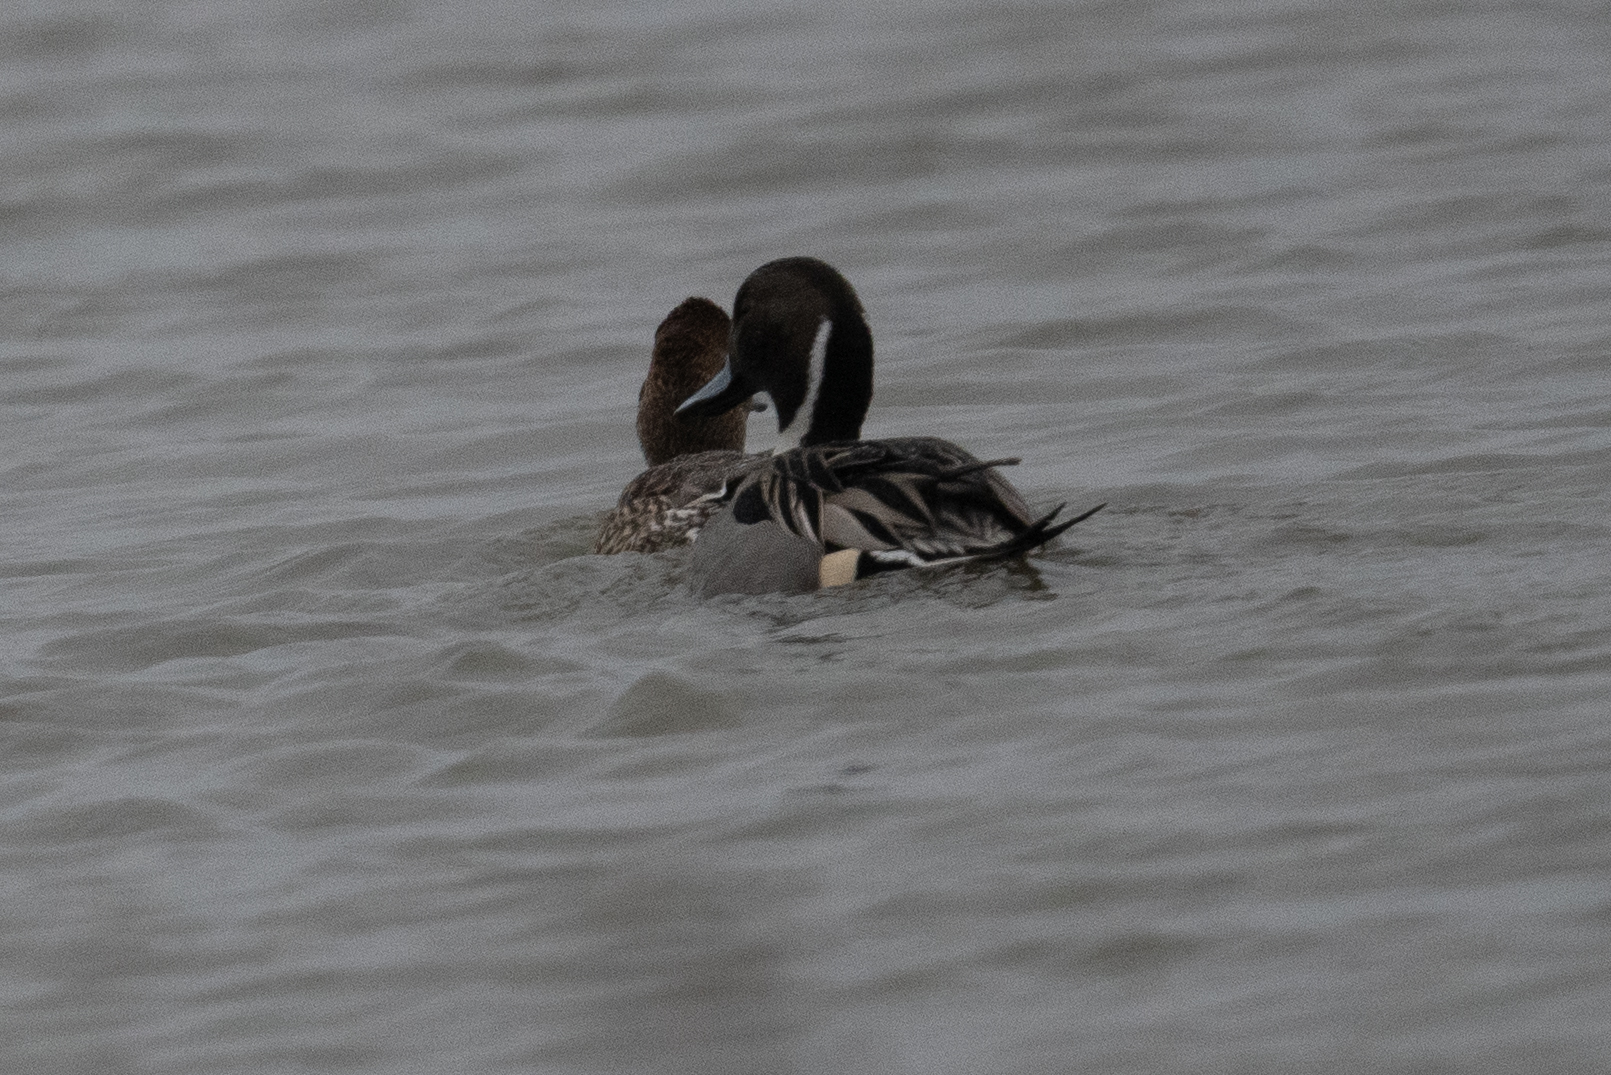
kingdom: Animalia
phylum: Chordata
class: Aves
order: Anseriformes
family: Anatidae
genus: Anas
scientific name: Anas acuta
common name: Northern pintail
